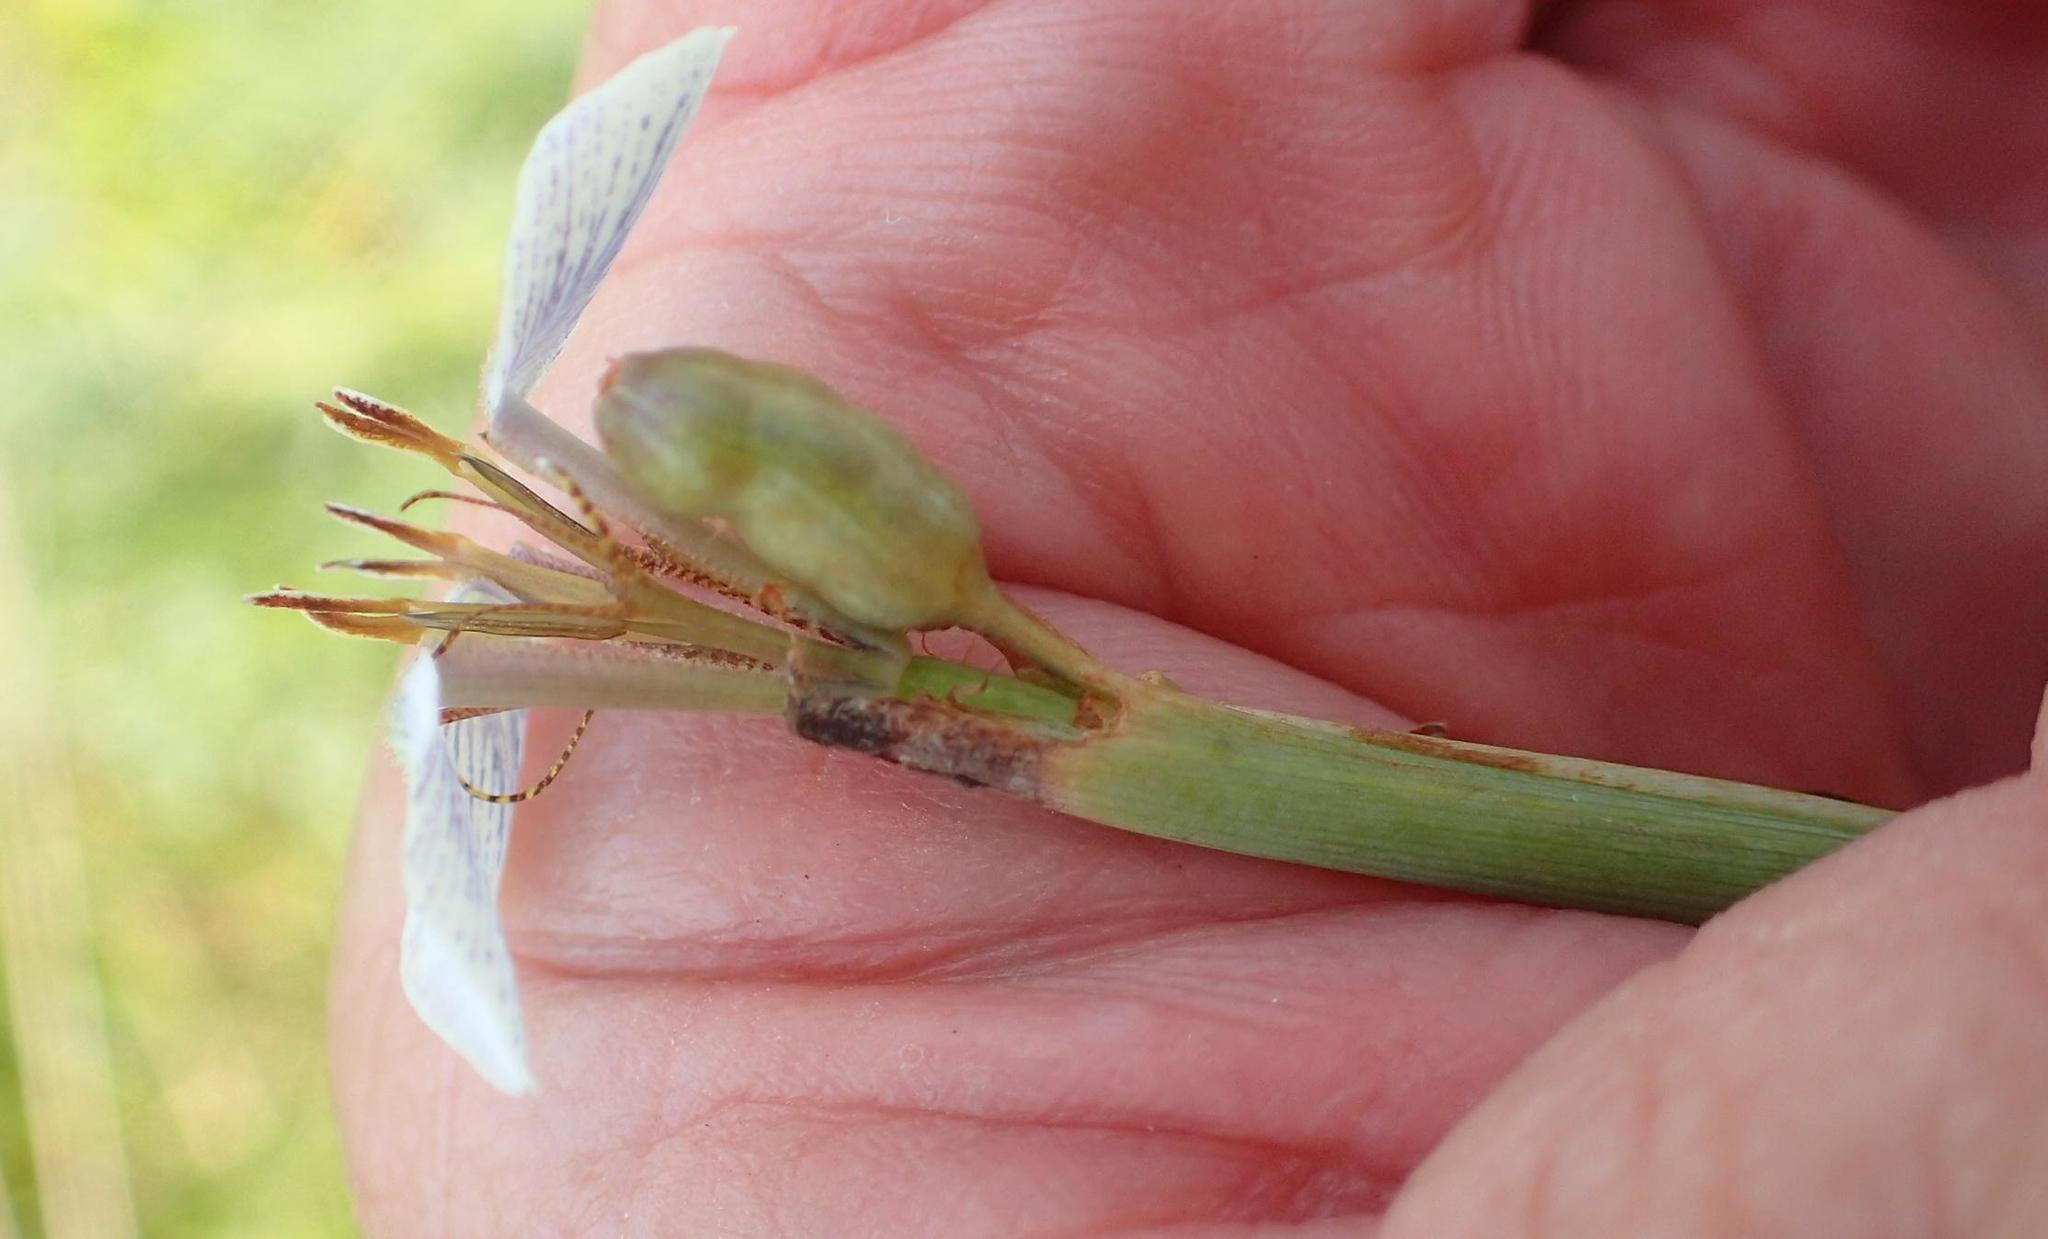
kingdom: Plantae
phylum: Tracheophyta
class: Liliopsida
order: Asparagales
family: Iridaceae
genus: Moraea
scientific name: Moraea brevistyla
